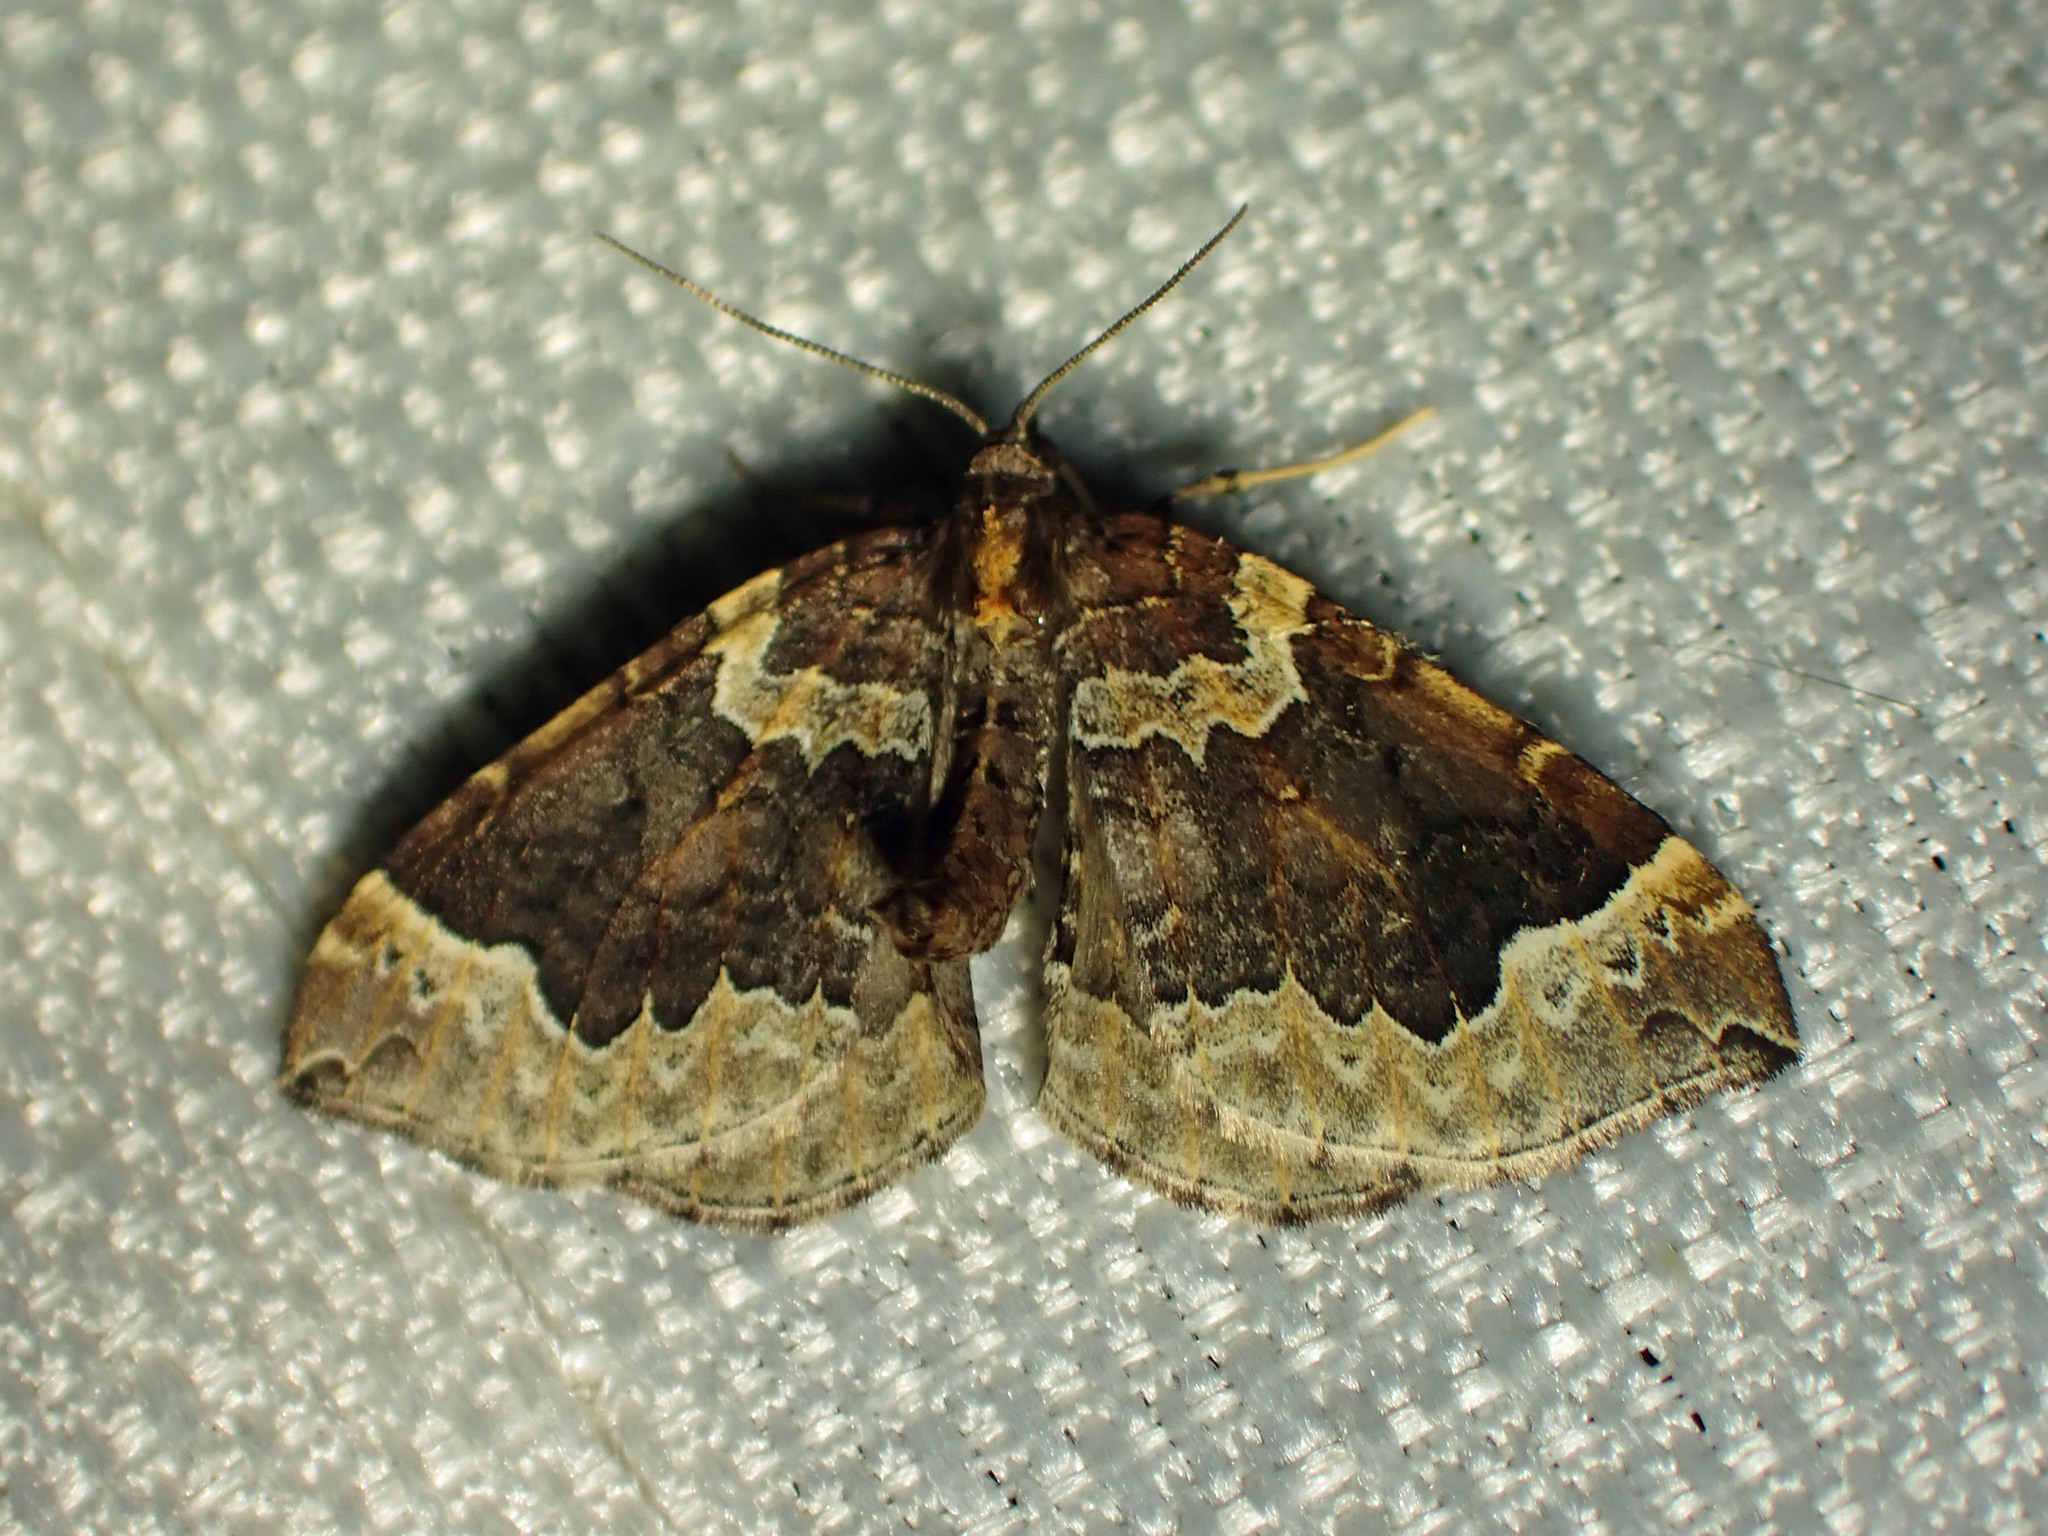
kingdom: Animalia
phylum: Arthropoda
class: Insecta
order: Lepidoptera
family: Geometridae
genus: Eulithis
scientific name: Eulithis flavibrunneata
